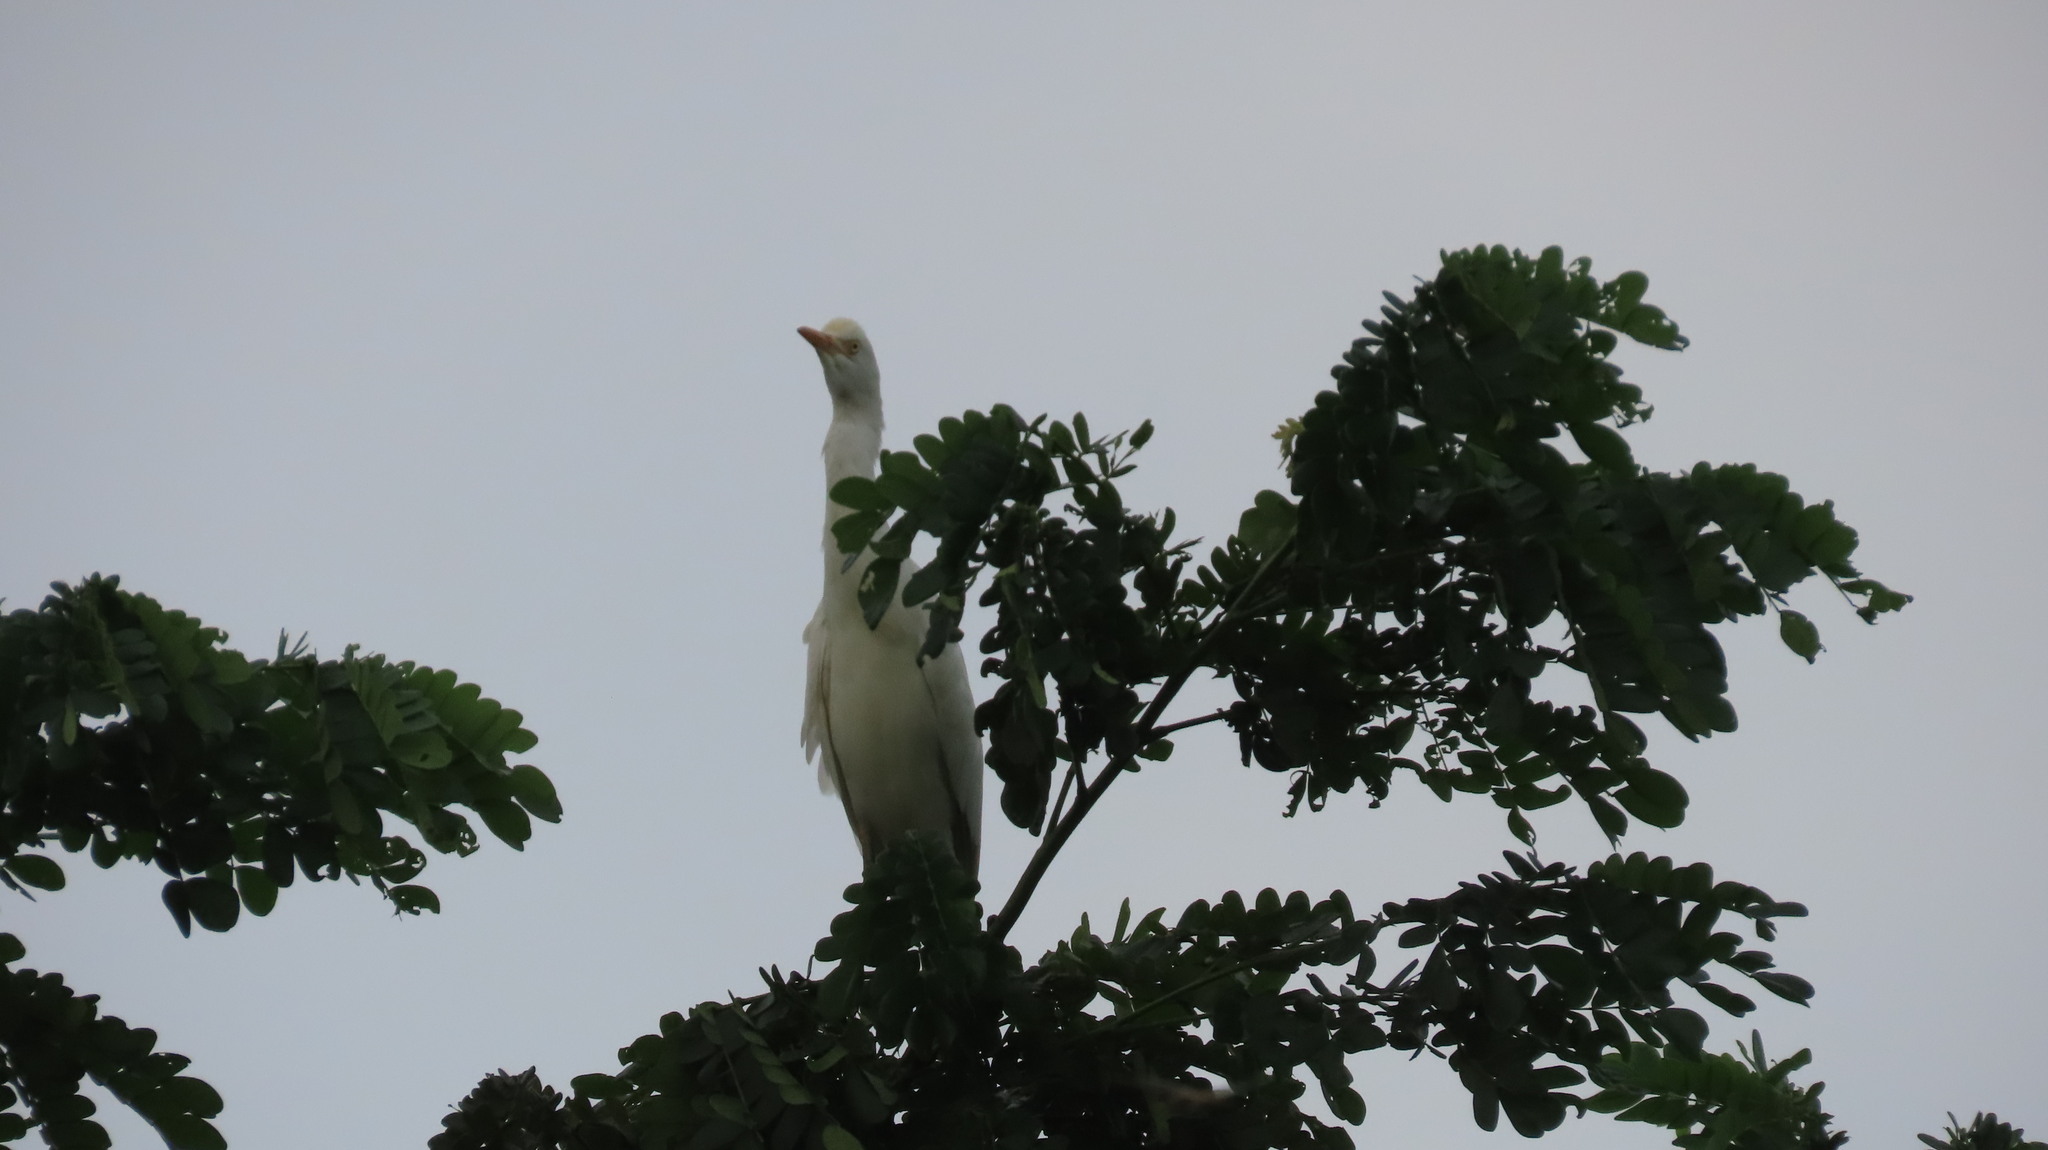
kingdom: Animalia
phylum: Chordata
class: Aves
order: Pelecaniformes
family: Ardeidae
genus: Bubulcus
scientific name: Bubulcus coromandus
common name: Eastern cattle egret
